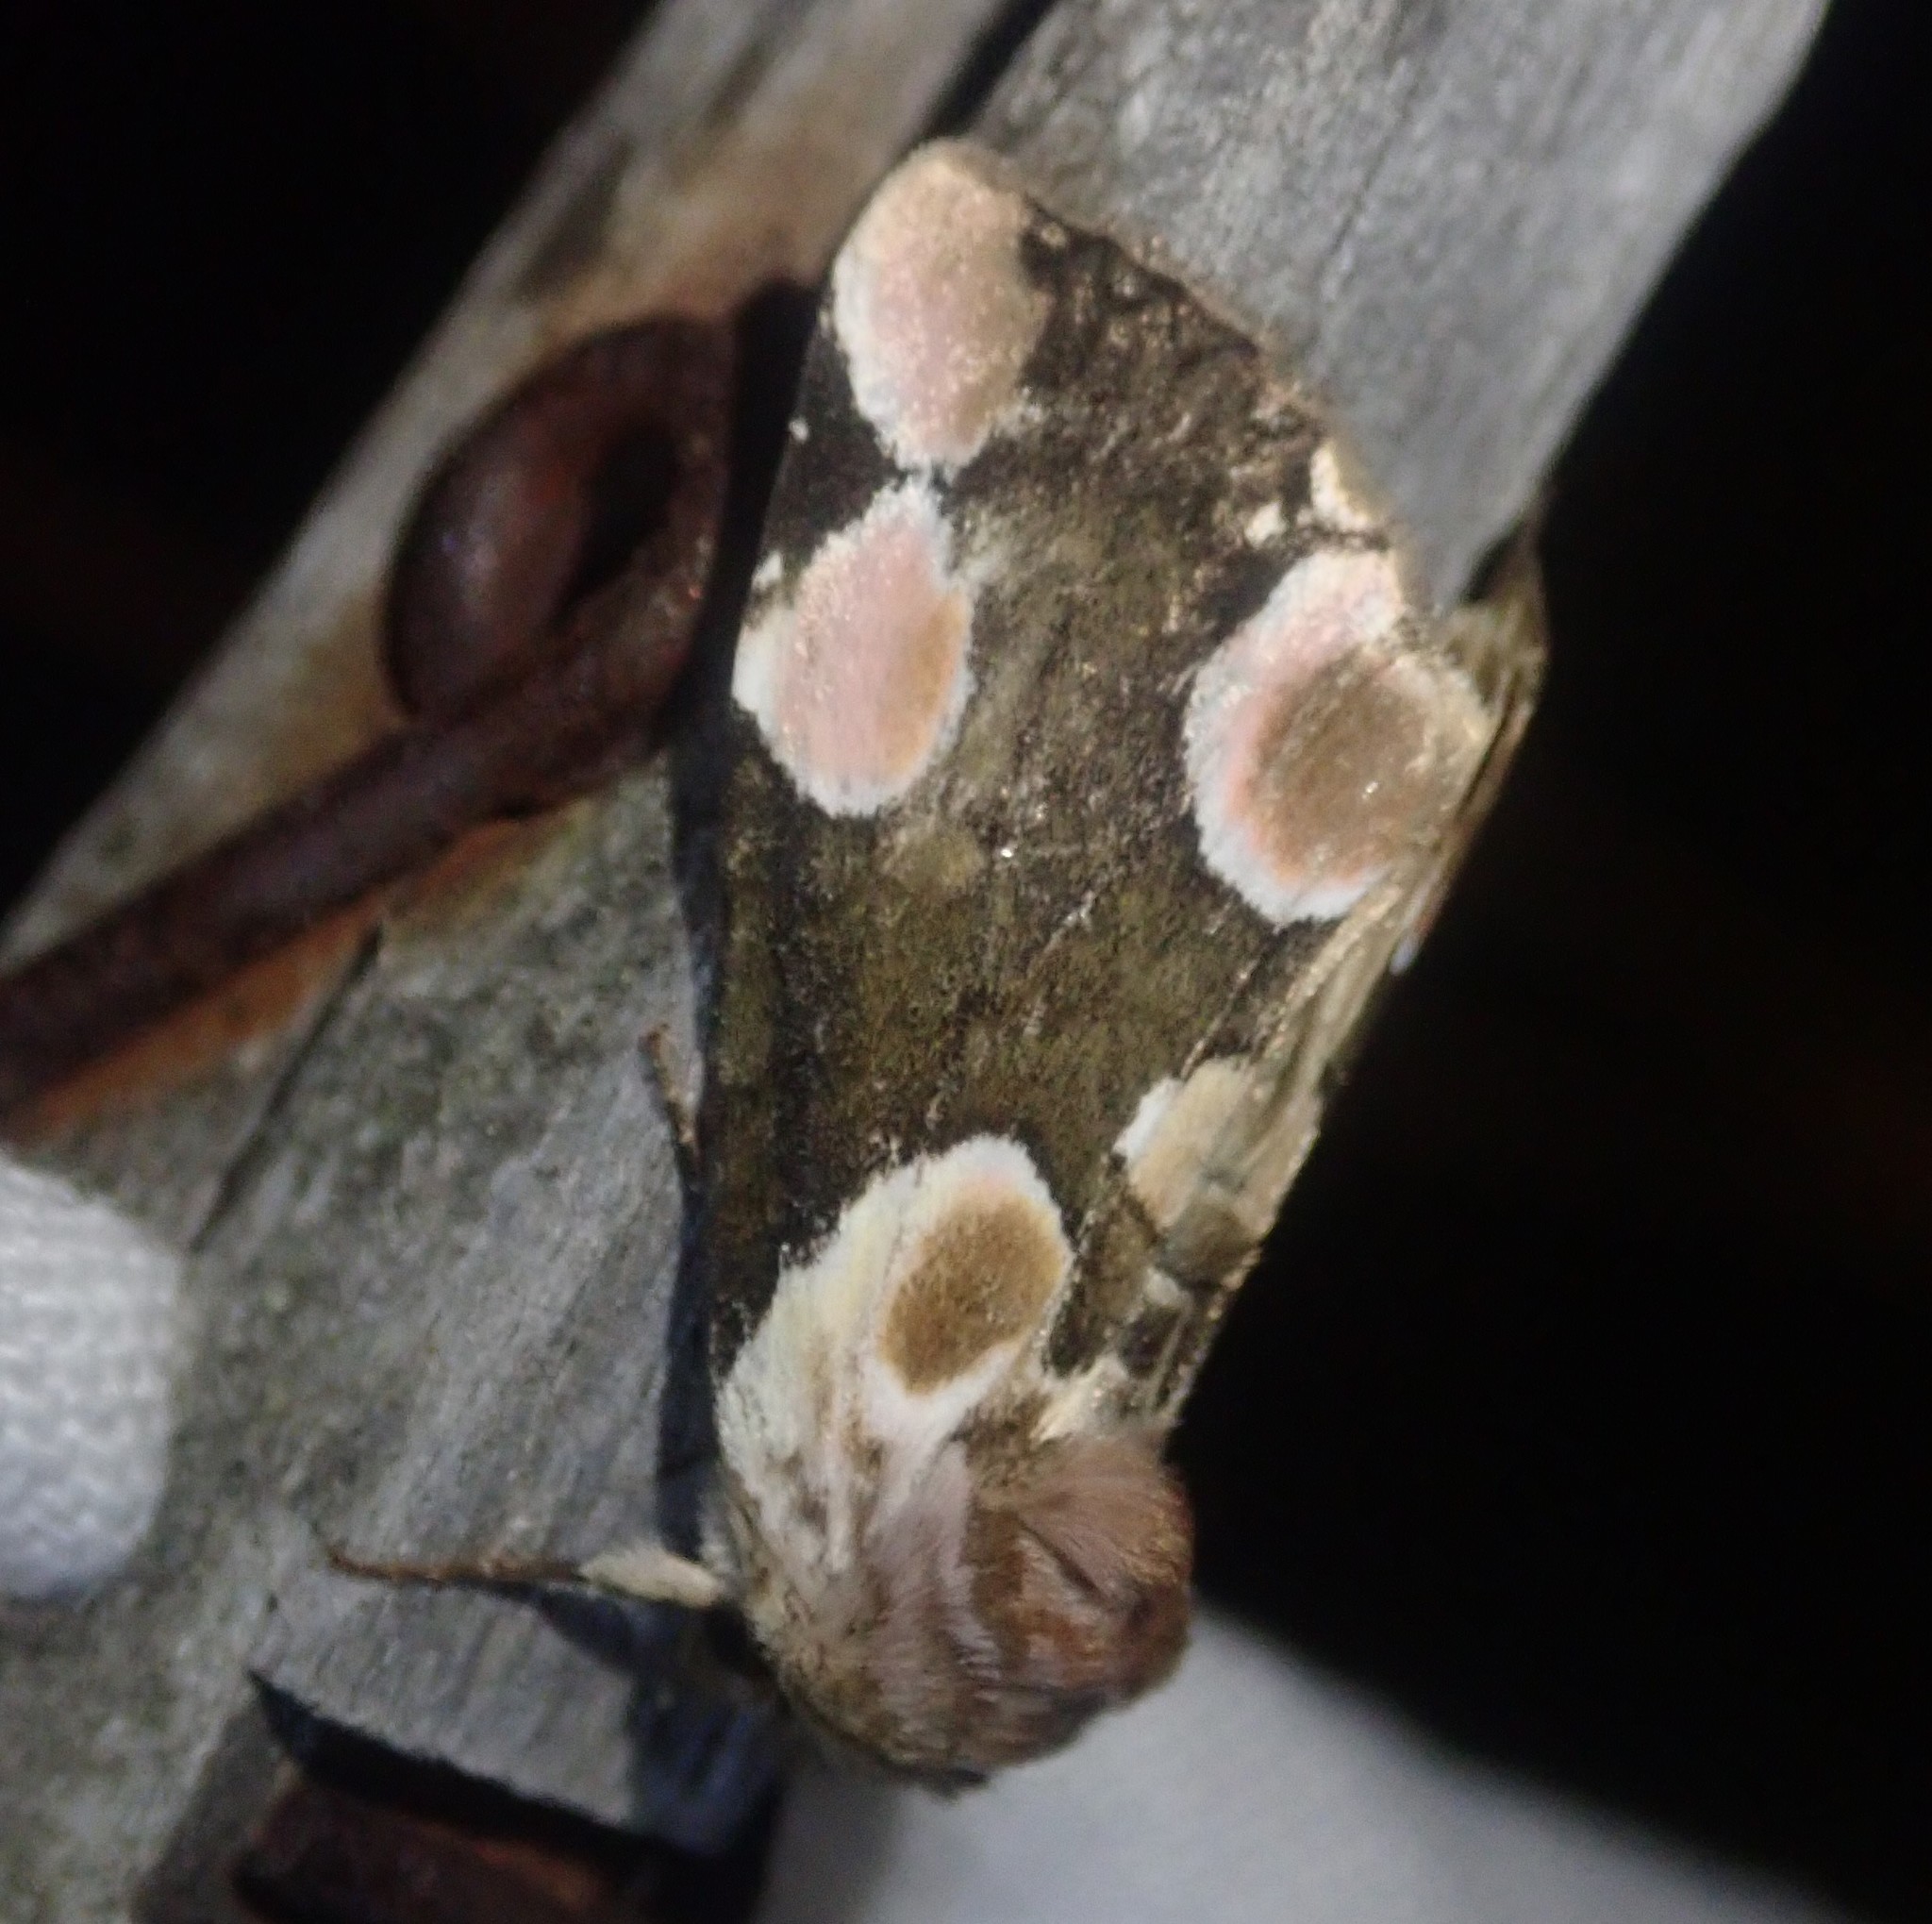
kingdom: Animalia
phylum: Arthropoda
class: Insecta
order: Lepidoptera
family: Drepanidae
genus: Thyatira
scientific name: Thyatira batis
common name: Peach blossom
